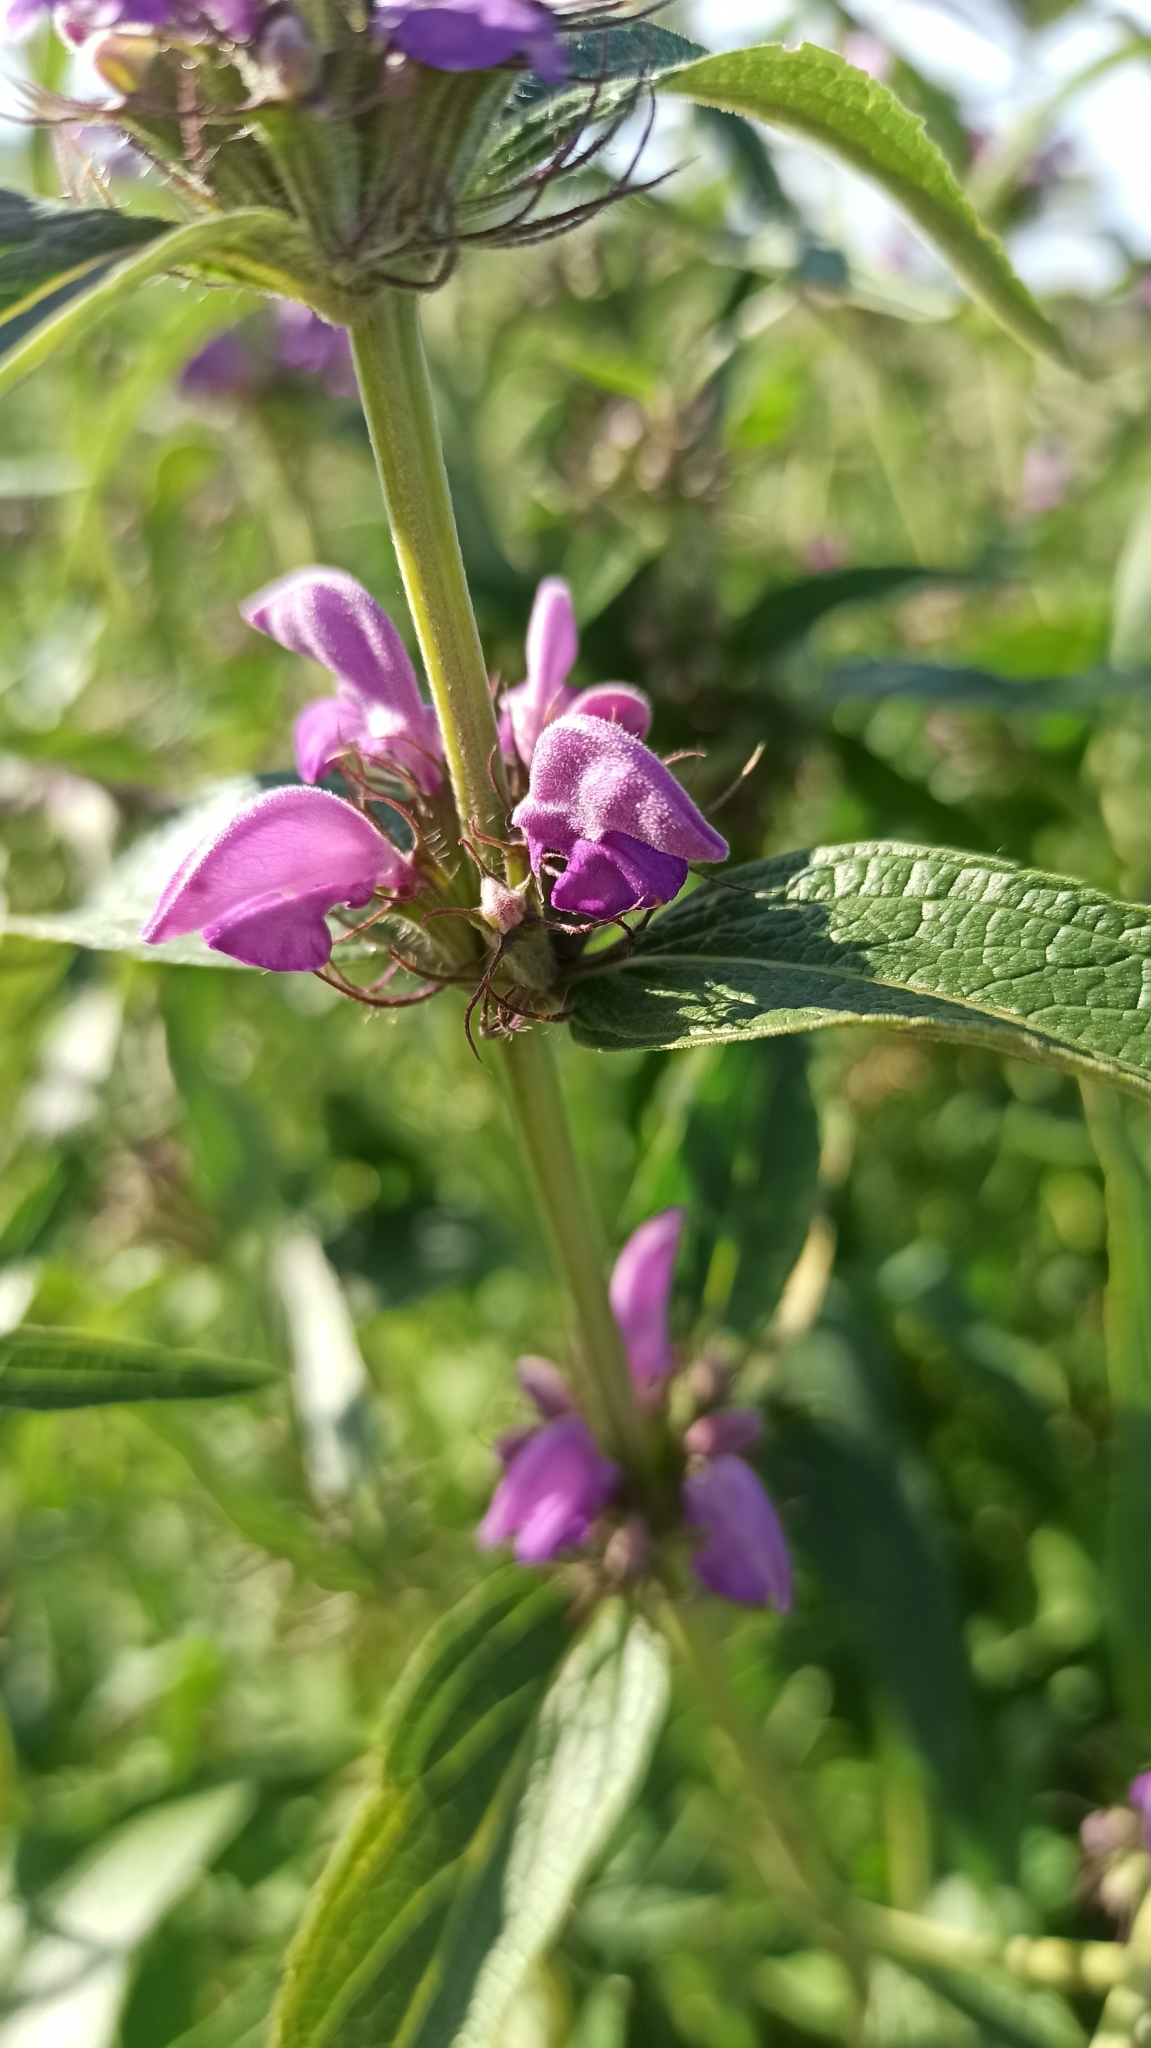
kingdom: Plantae
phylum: Tracheophyta
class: Magnoliopsida
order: Lamiales
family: Lamiaceae
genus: Phlomis
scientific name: Phlomis herba-venti
